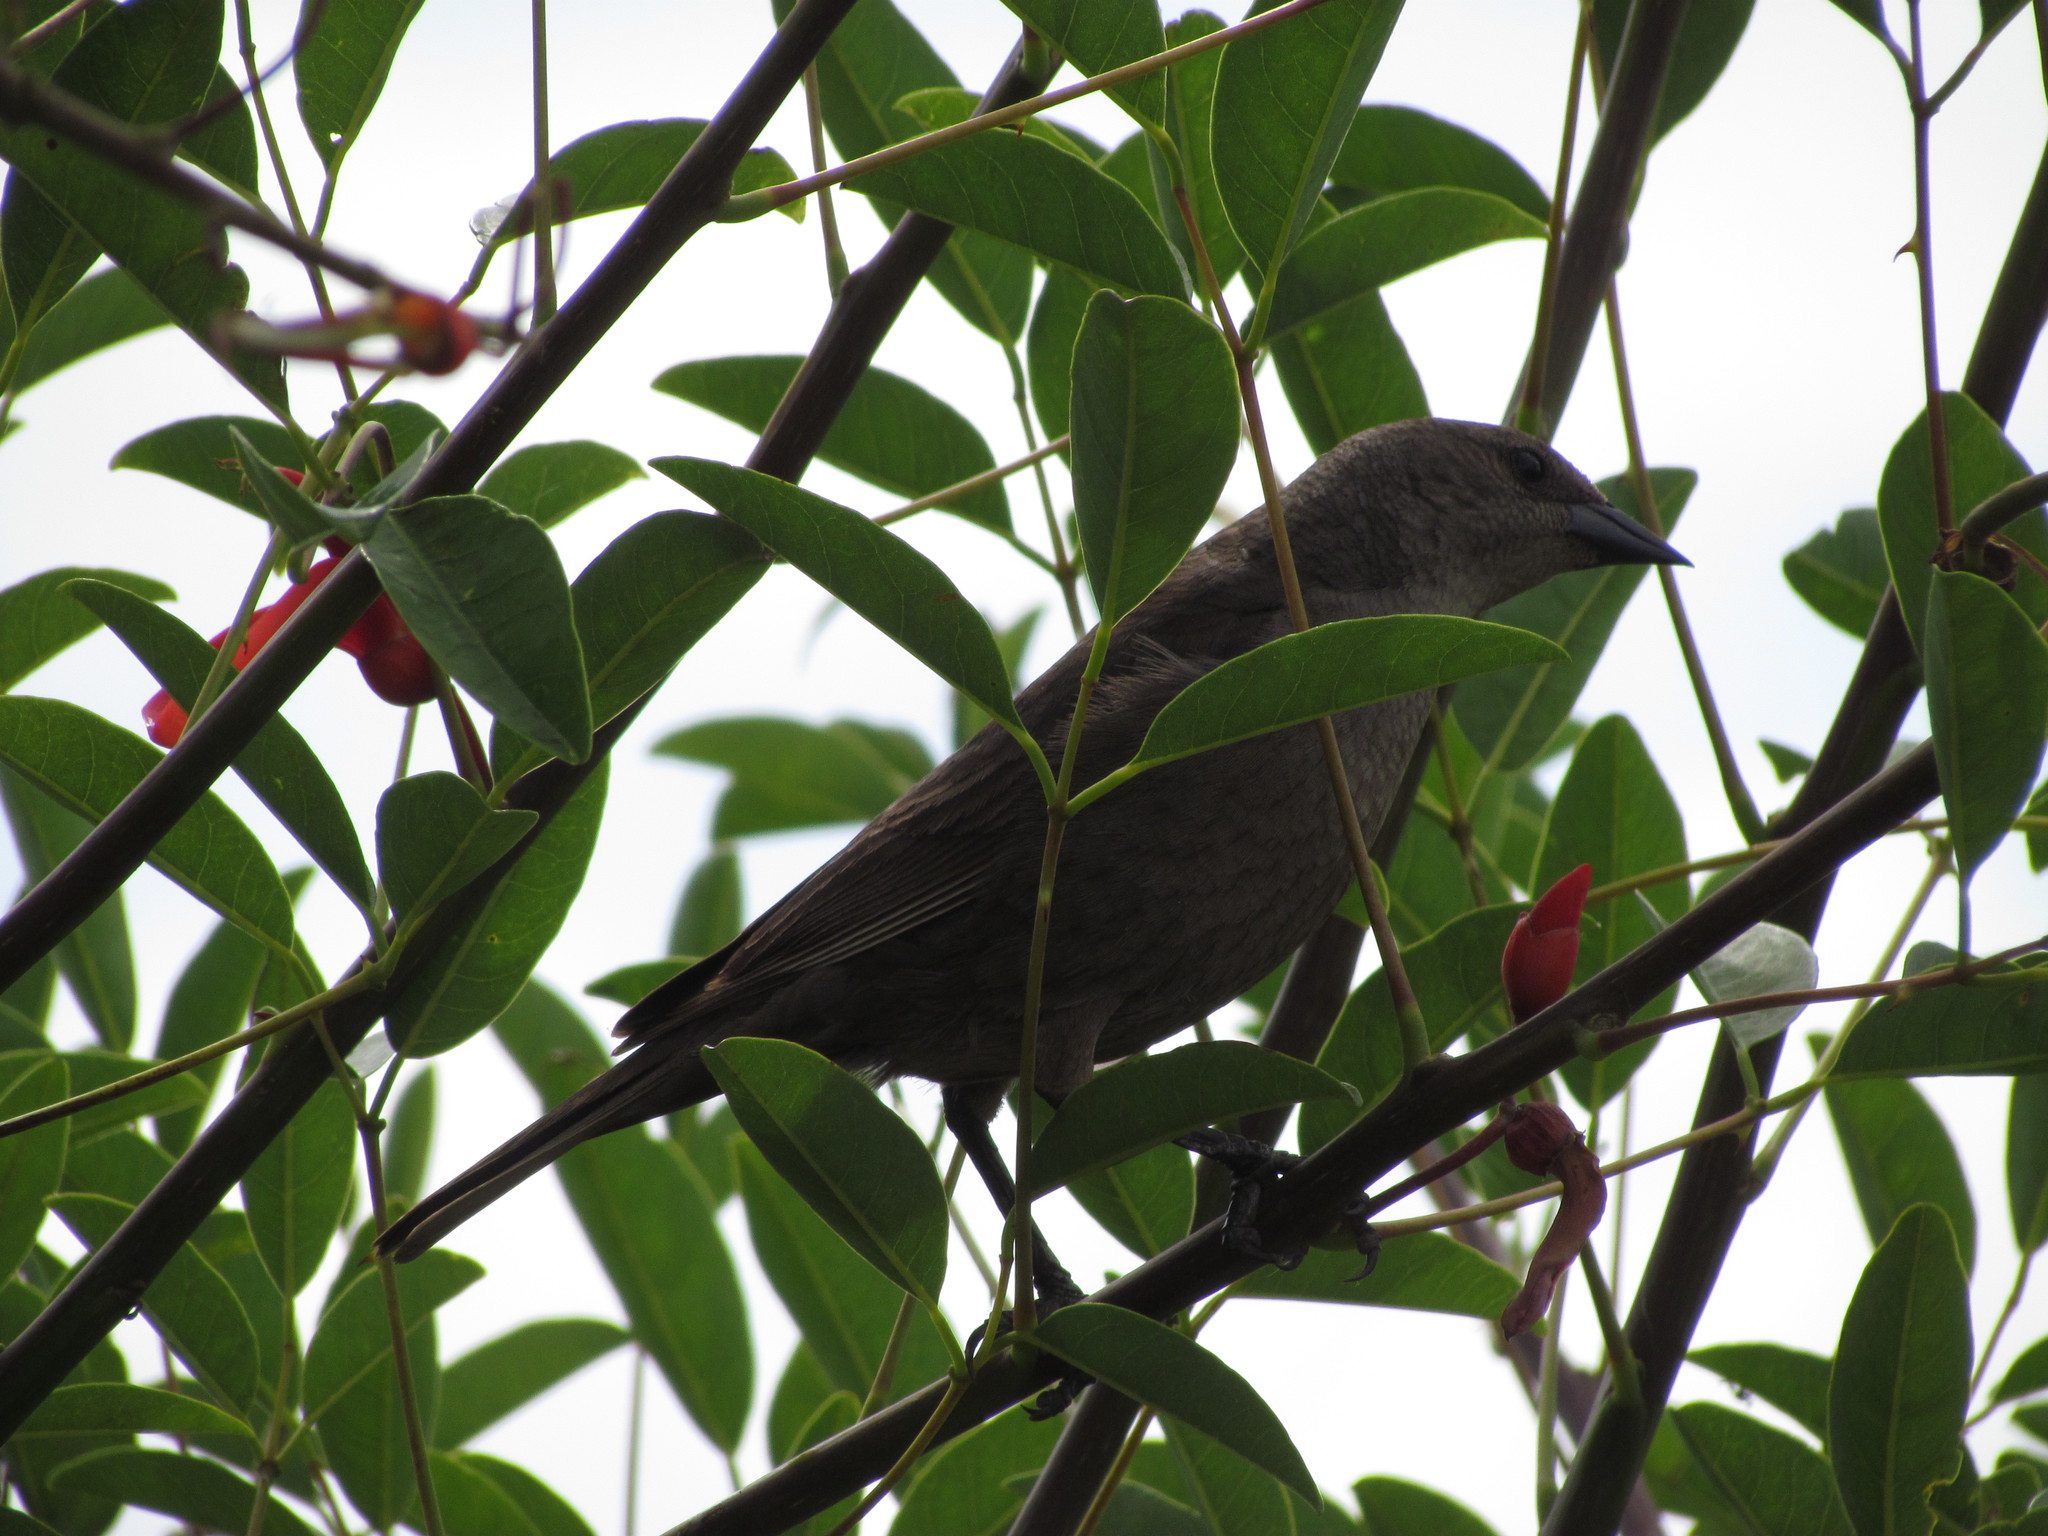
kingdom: Animalia
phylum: Chordata
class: Aves
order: Passeriformes
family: Icteridae
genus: Molothrus
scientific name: Molothrus bonariensis
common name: Shiny cowbird
